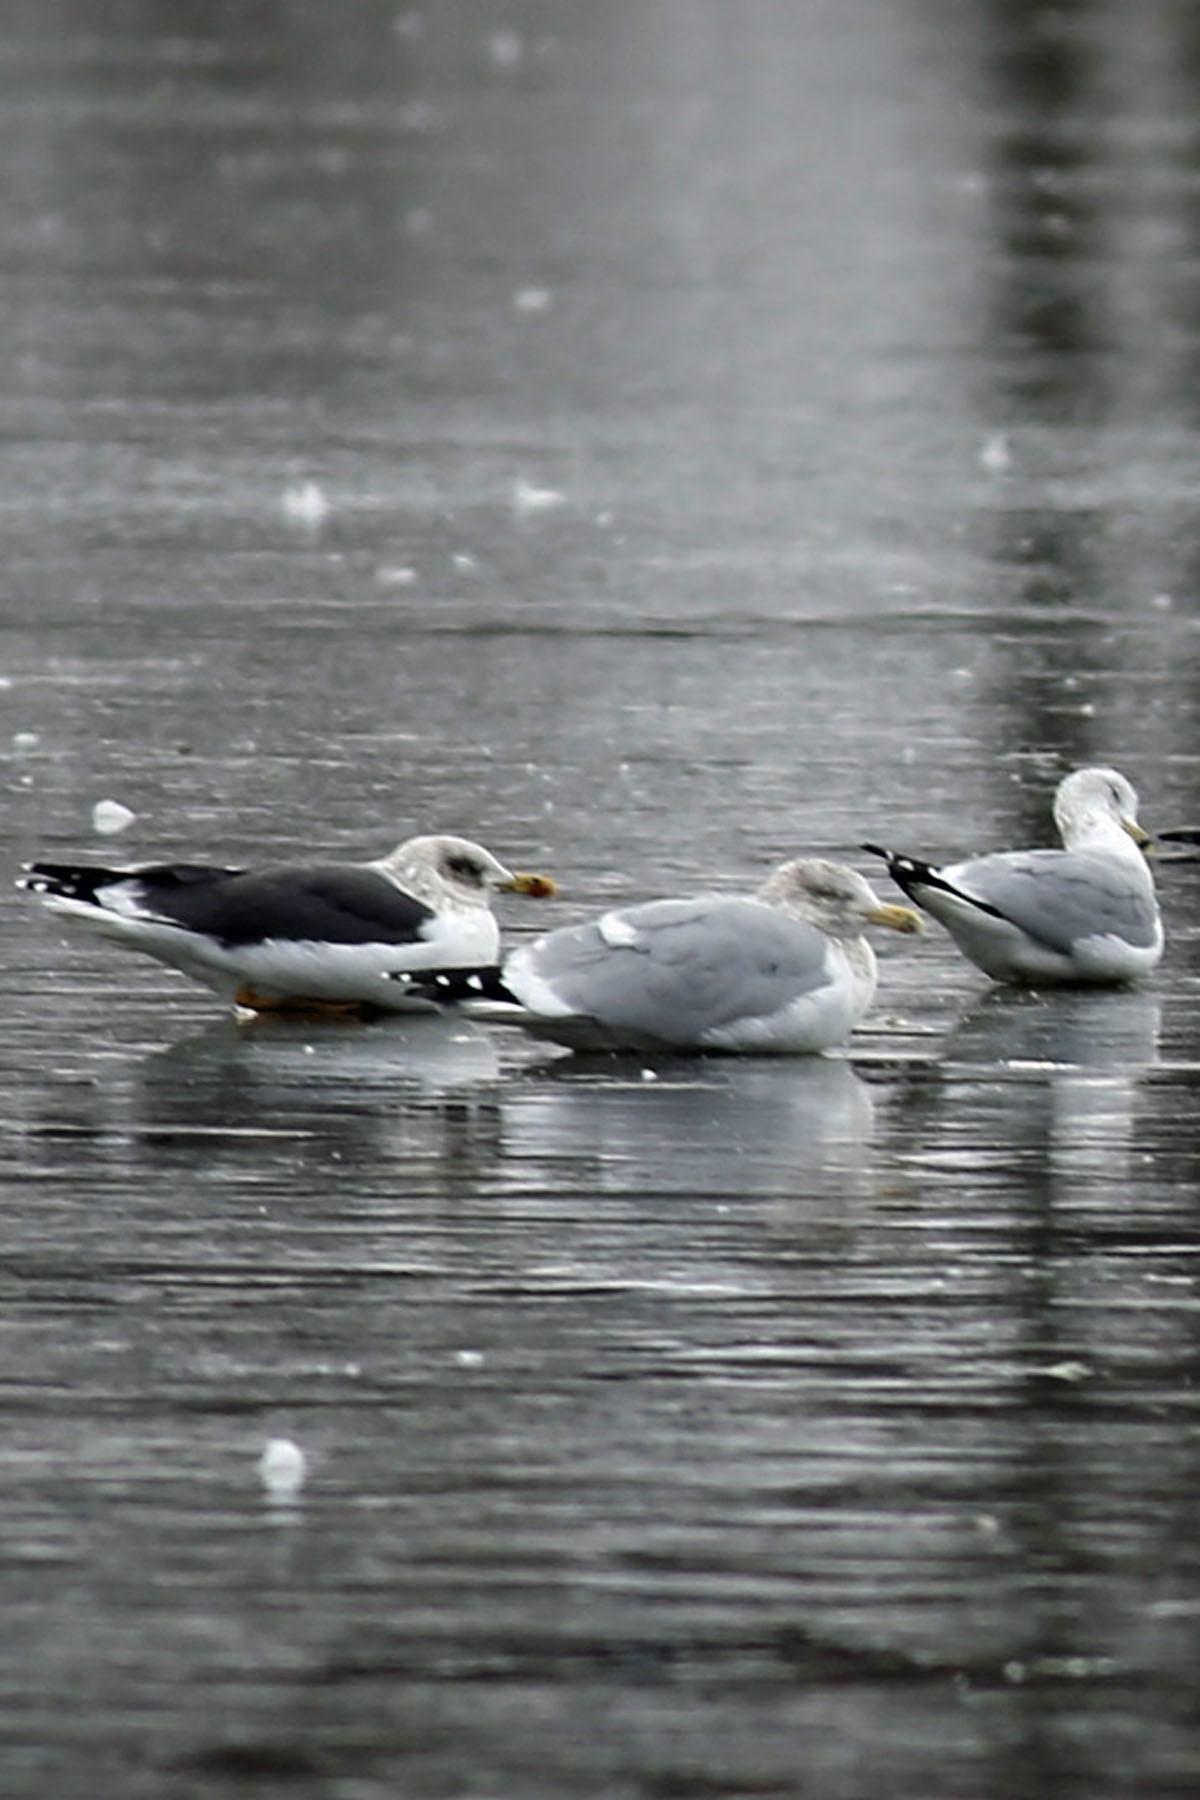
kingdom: Animalia
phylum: Chordata
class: Aves
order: Charadriiformes
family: Laridae
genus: Larus
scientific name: Larus argentatus
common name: Herring gull
